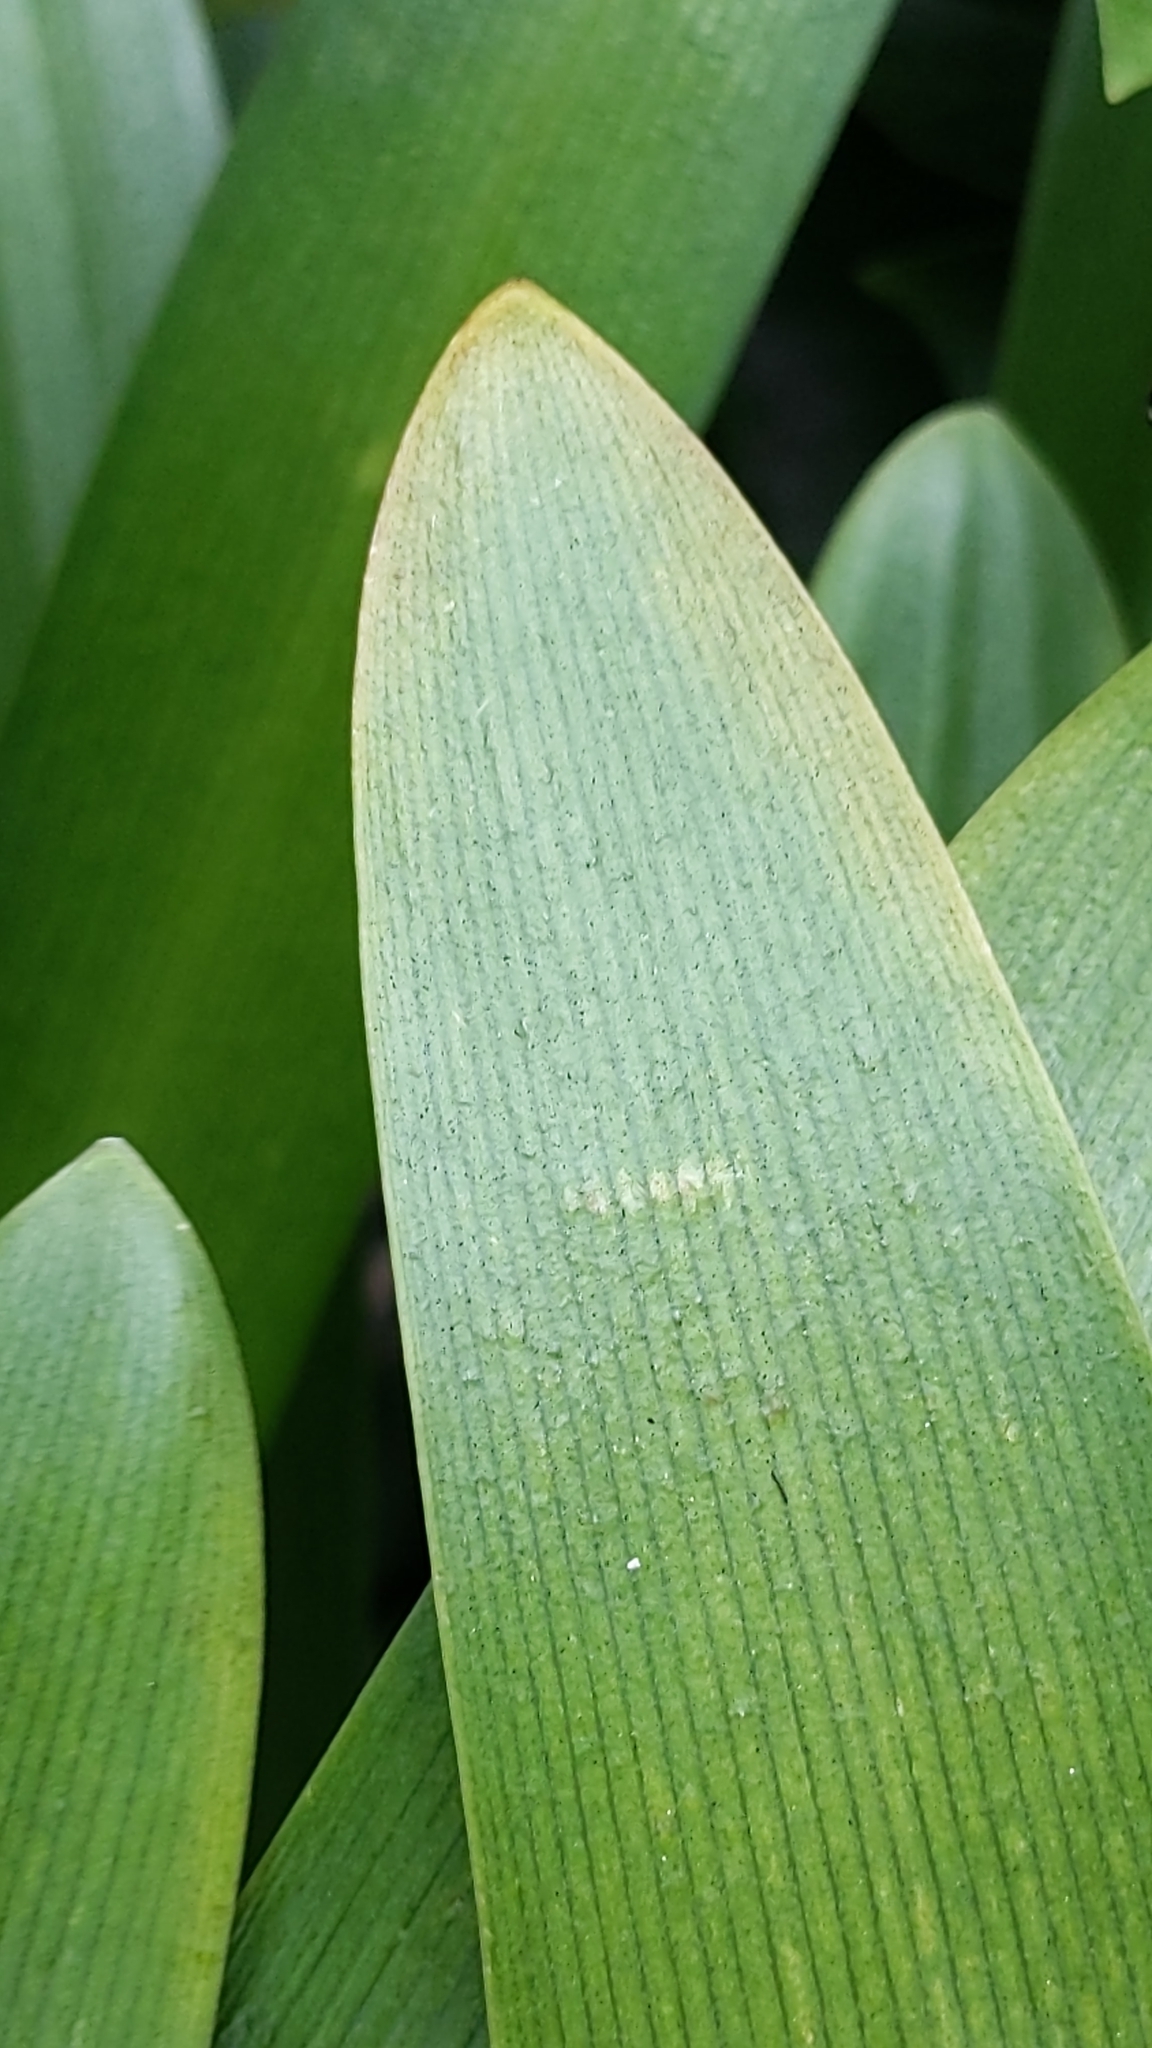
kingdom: Plantae
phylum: Tracheophyta
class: Liliopsida
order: Asparagales
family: Amaryllidaceae
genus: Agapanthus
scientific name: Agapanthus praecox
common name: African-lily
